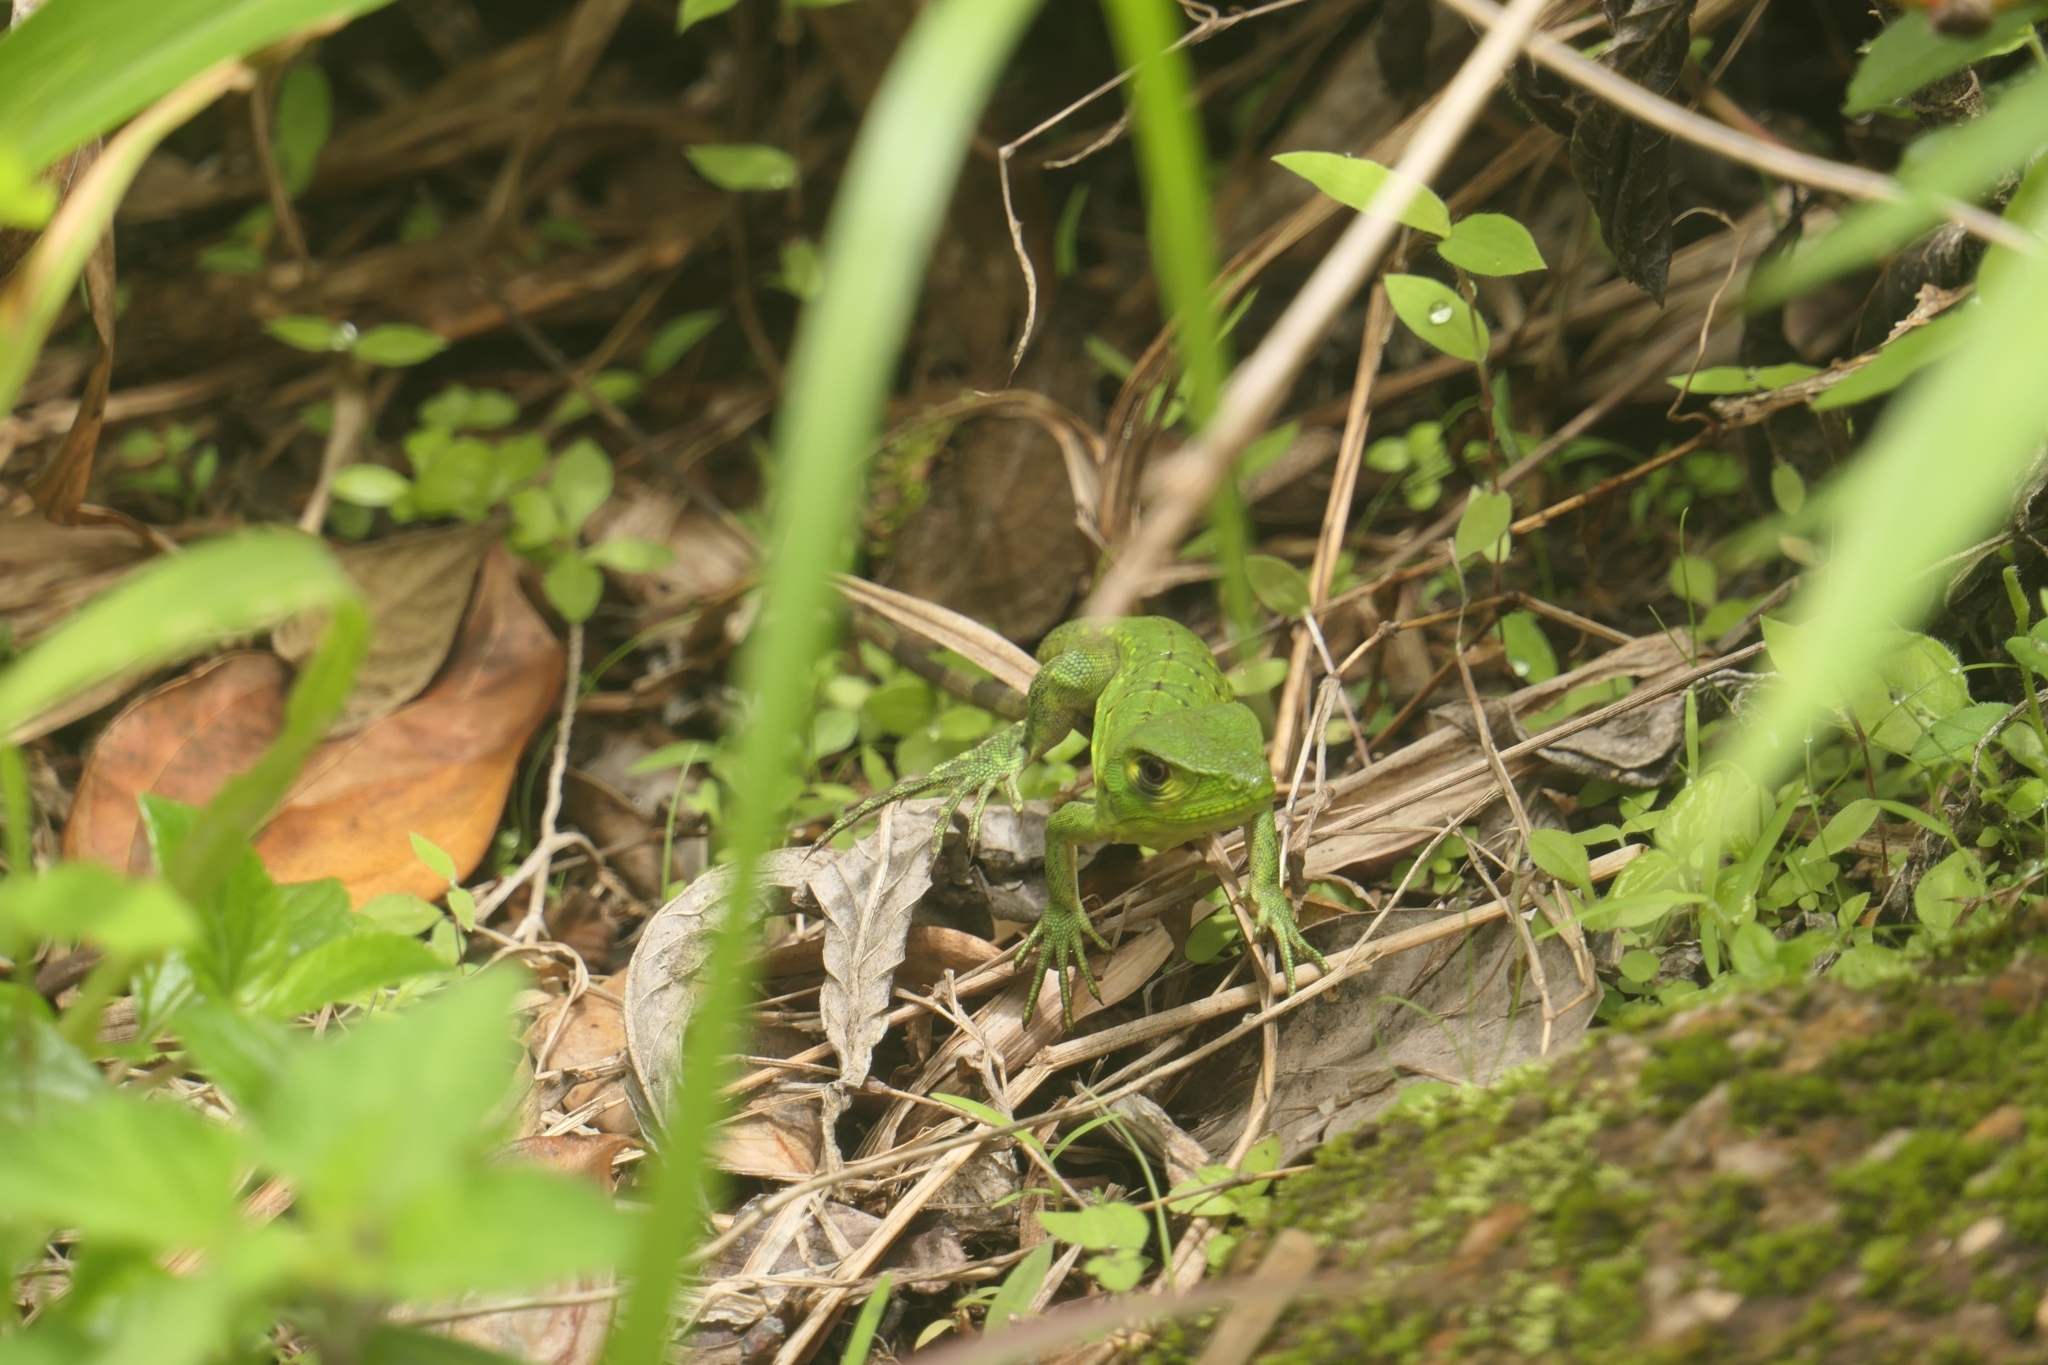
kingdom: Animalia
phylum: Chordata
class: Squamata
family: Iguanidae
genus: Ctenosaura
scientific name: Ctenosaura similis
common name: Black spiny-tailed iguana
